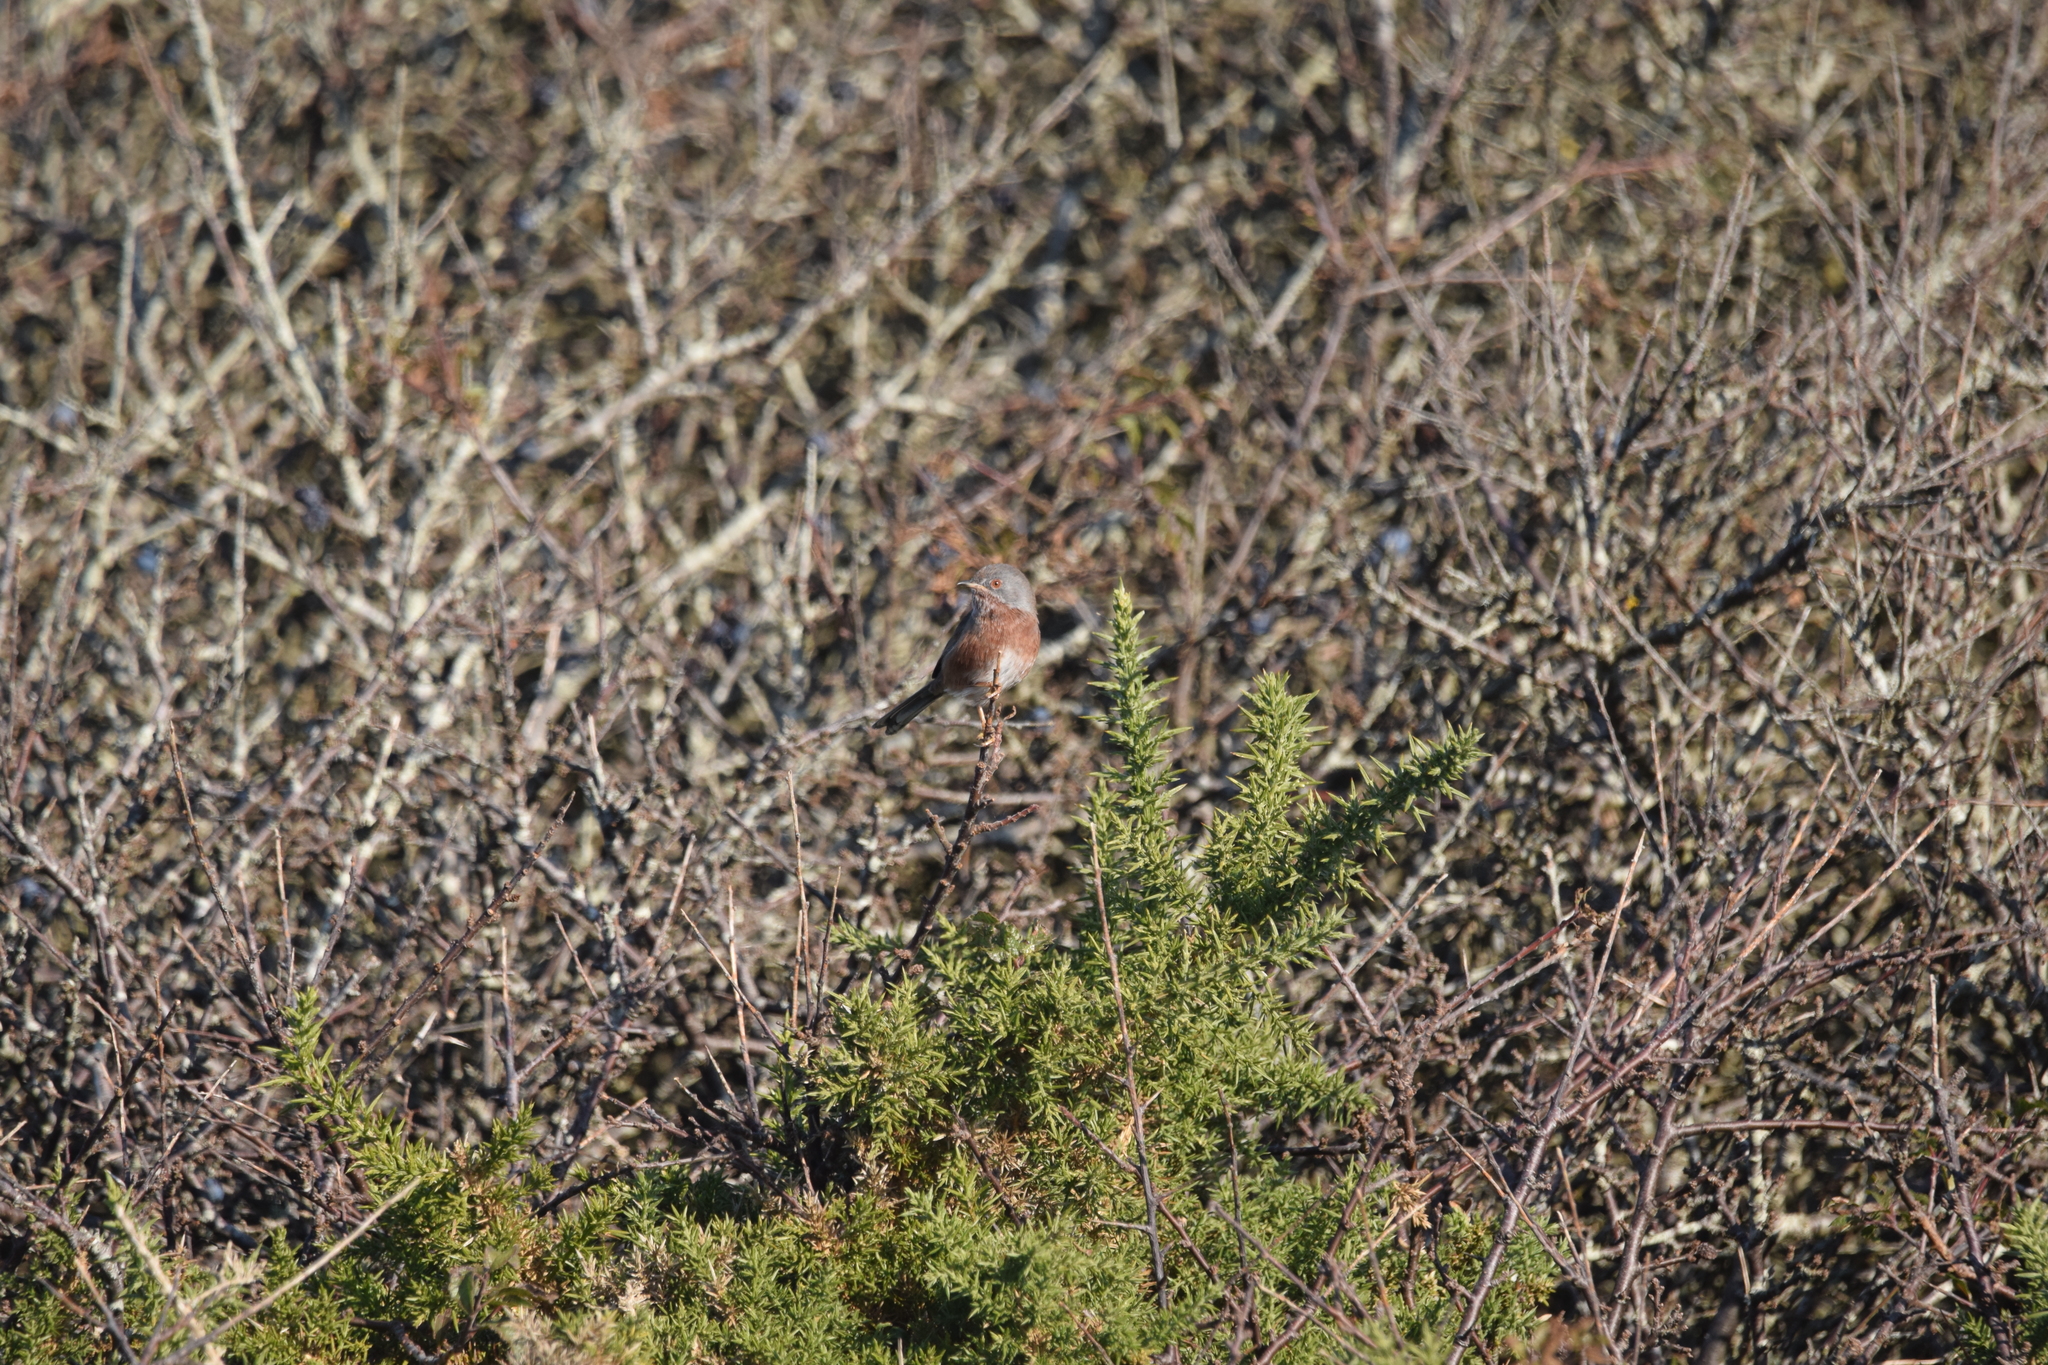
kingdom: Animalia
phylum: Chordata
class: Aves
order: Passeriformes
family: Sylviidae
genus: Sylvia
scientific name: Sylvia undata
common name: Dartford warbler
